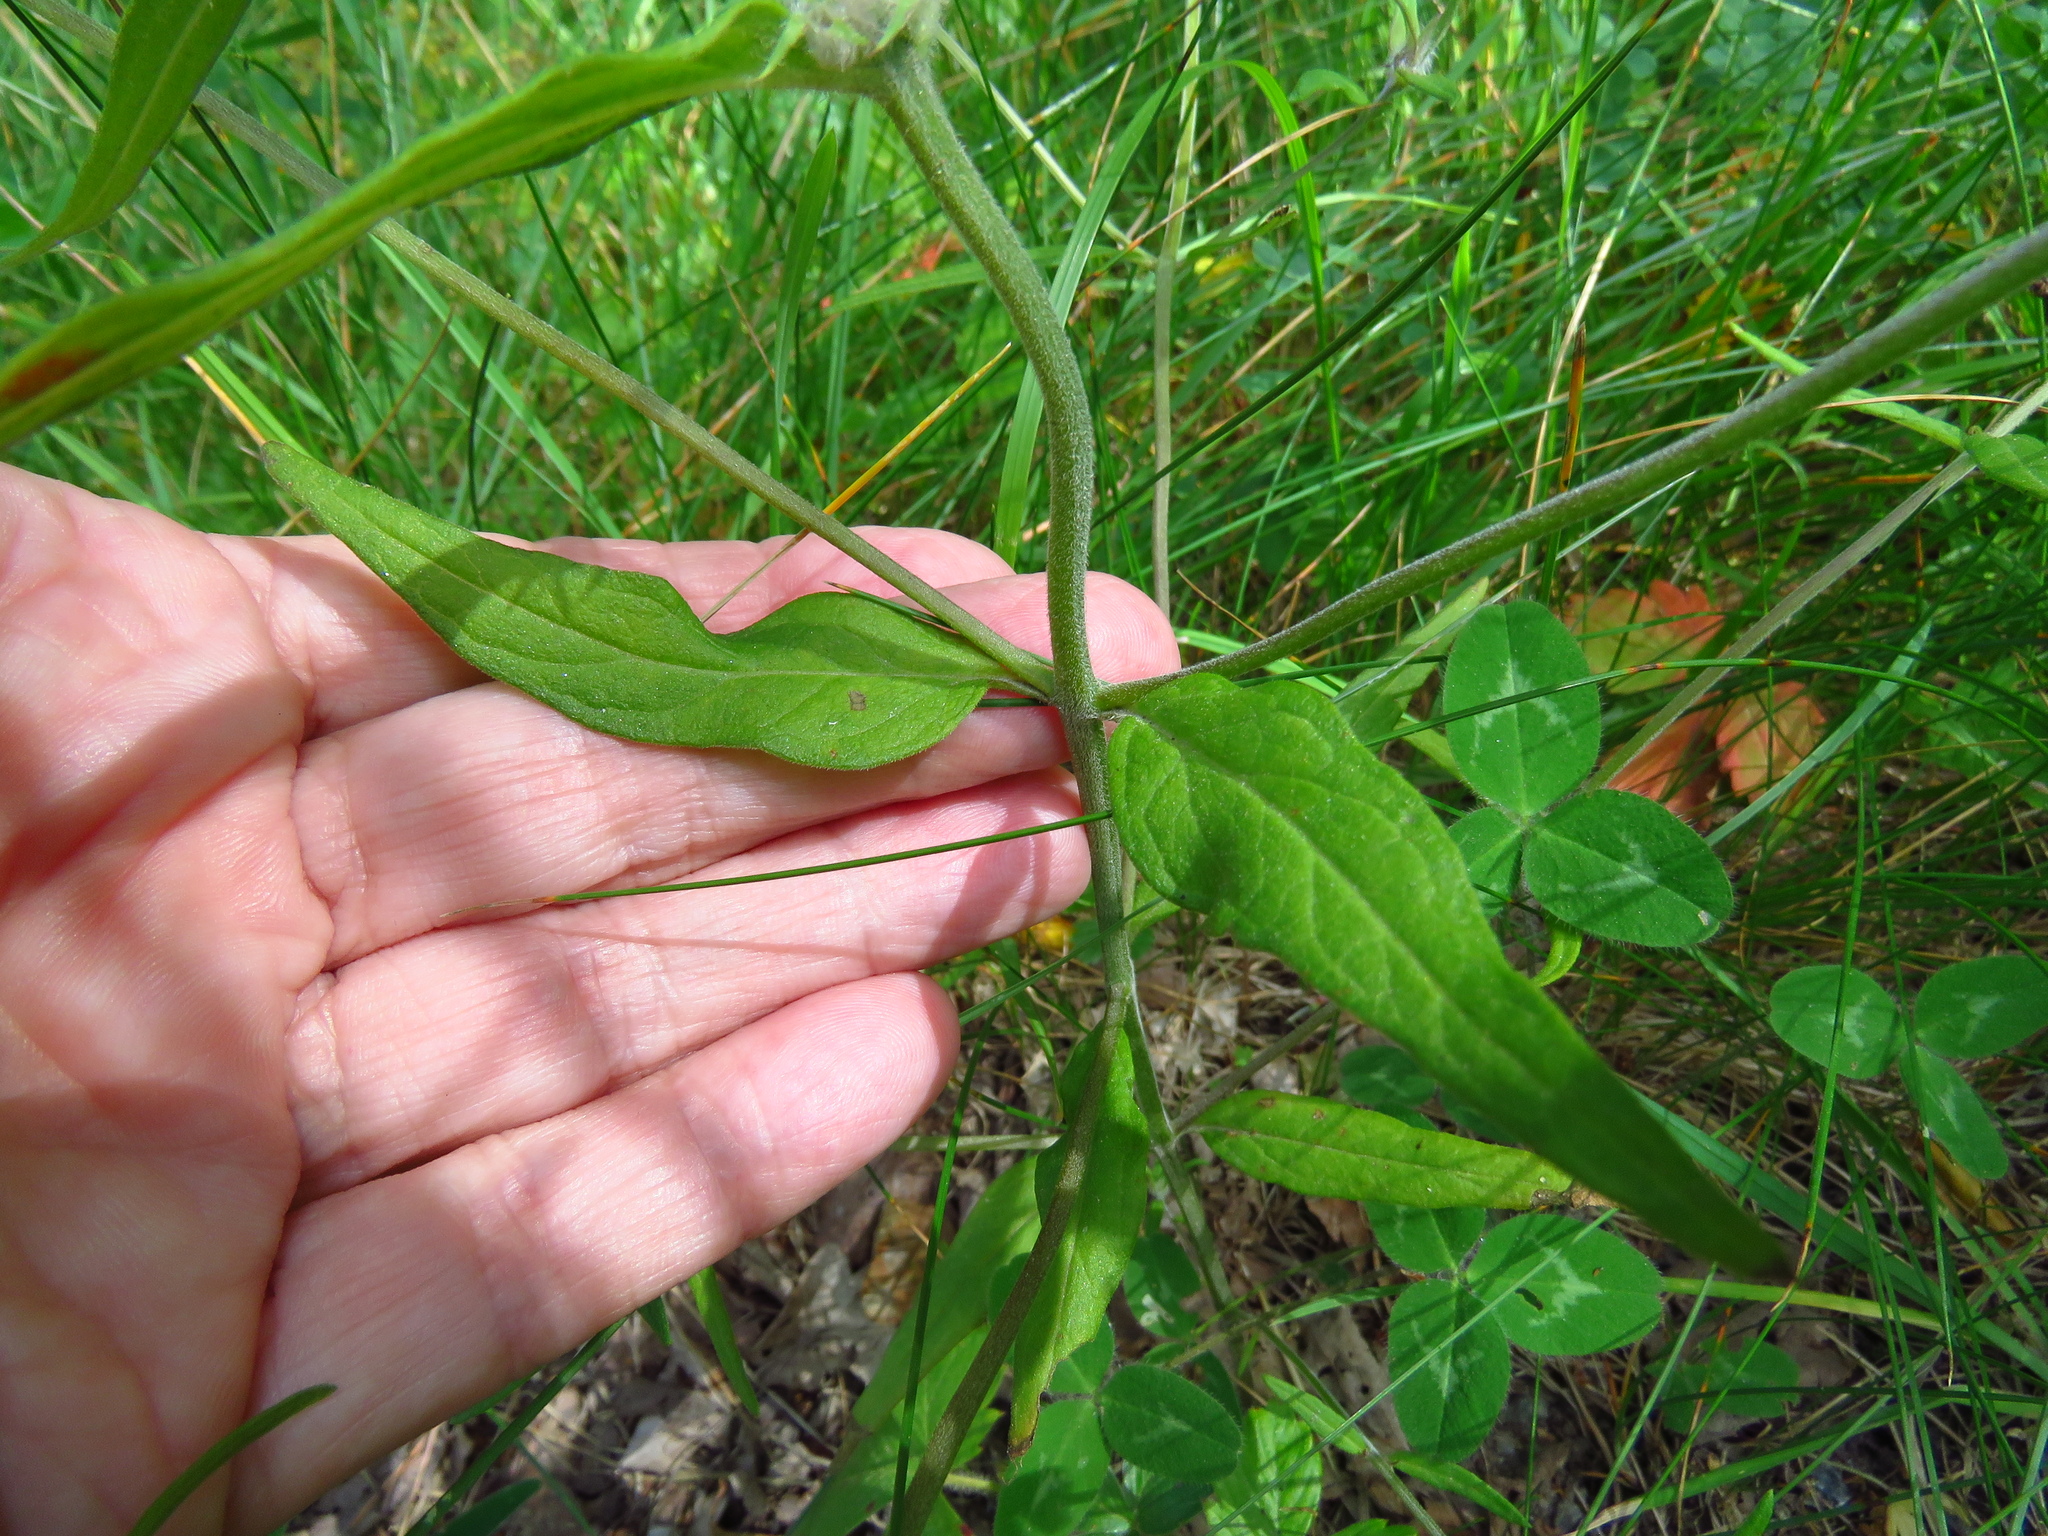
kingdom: Plantae
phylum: Tracheophyta
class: Magnoliopsida
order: Lamiales
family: Orobanchaceae
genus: Melampyrum
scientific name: Melampyrum nemorosum
